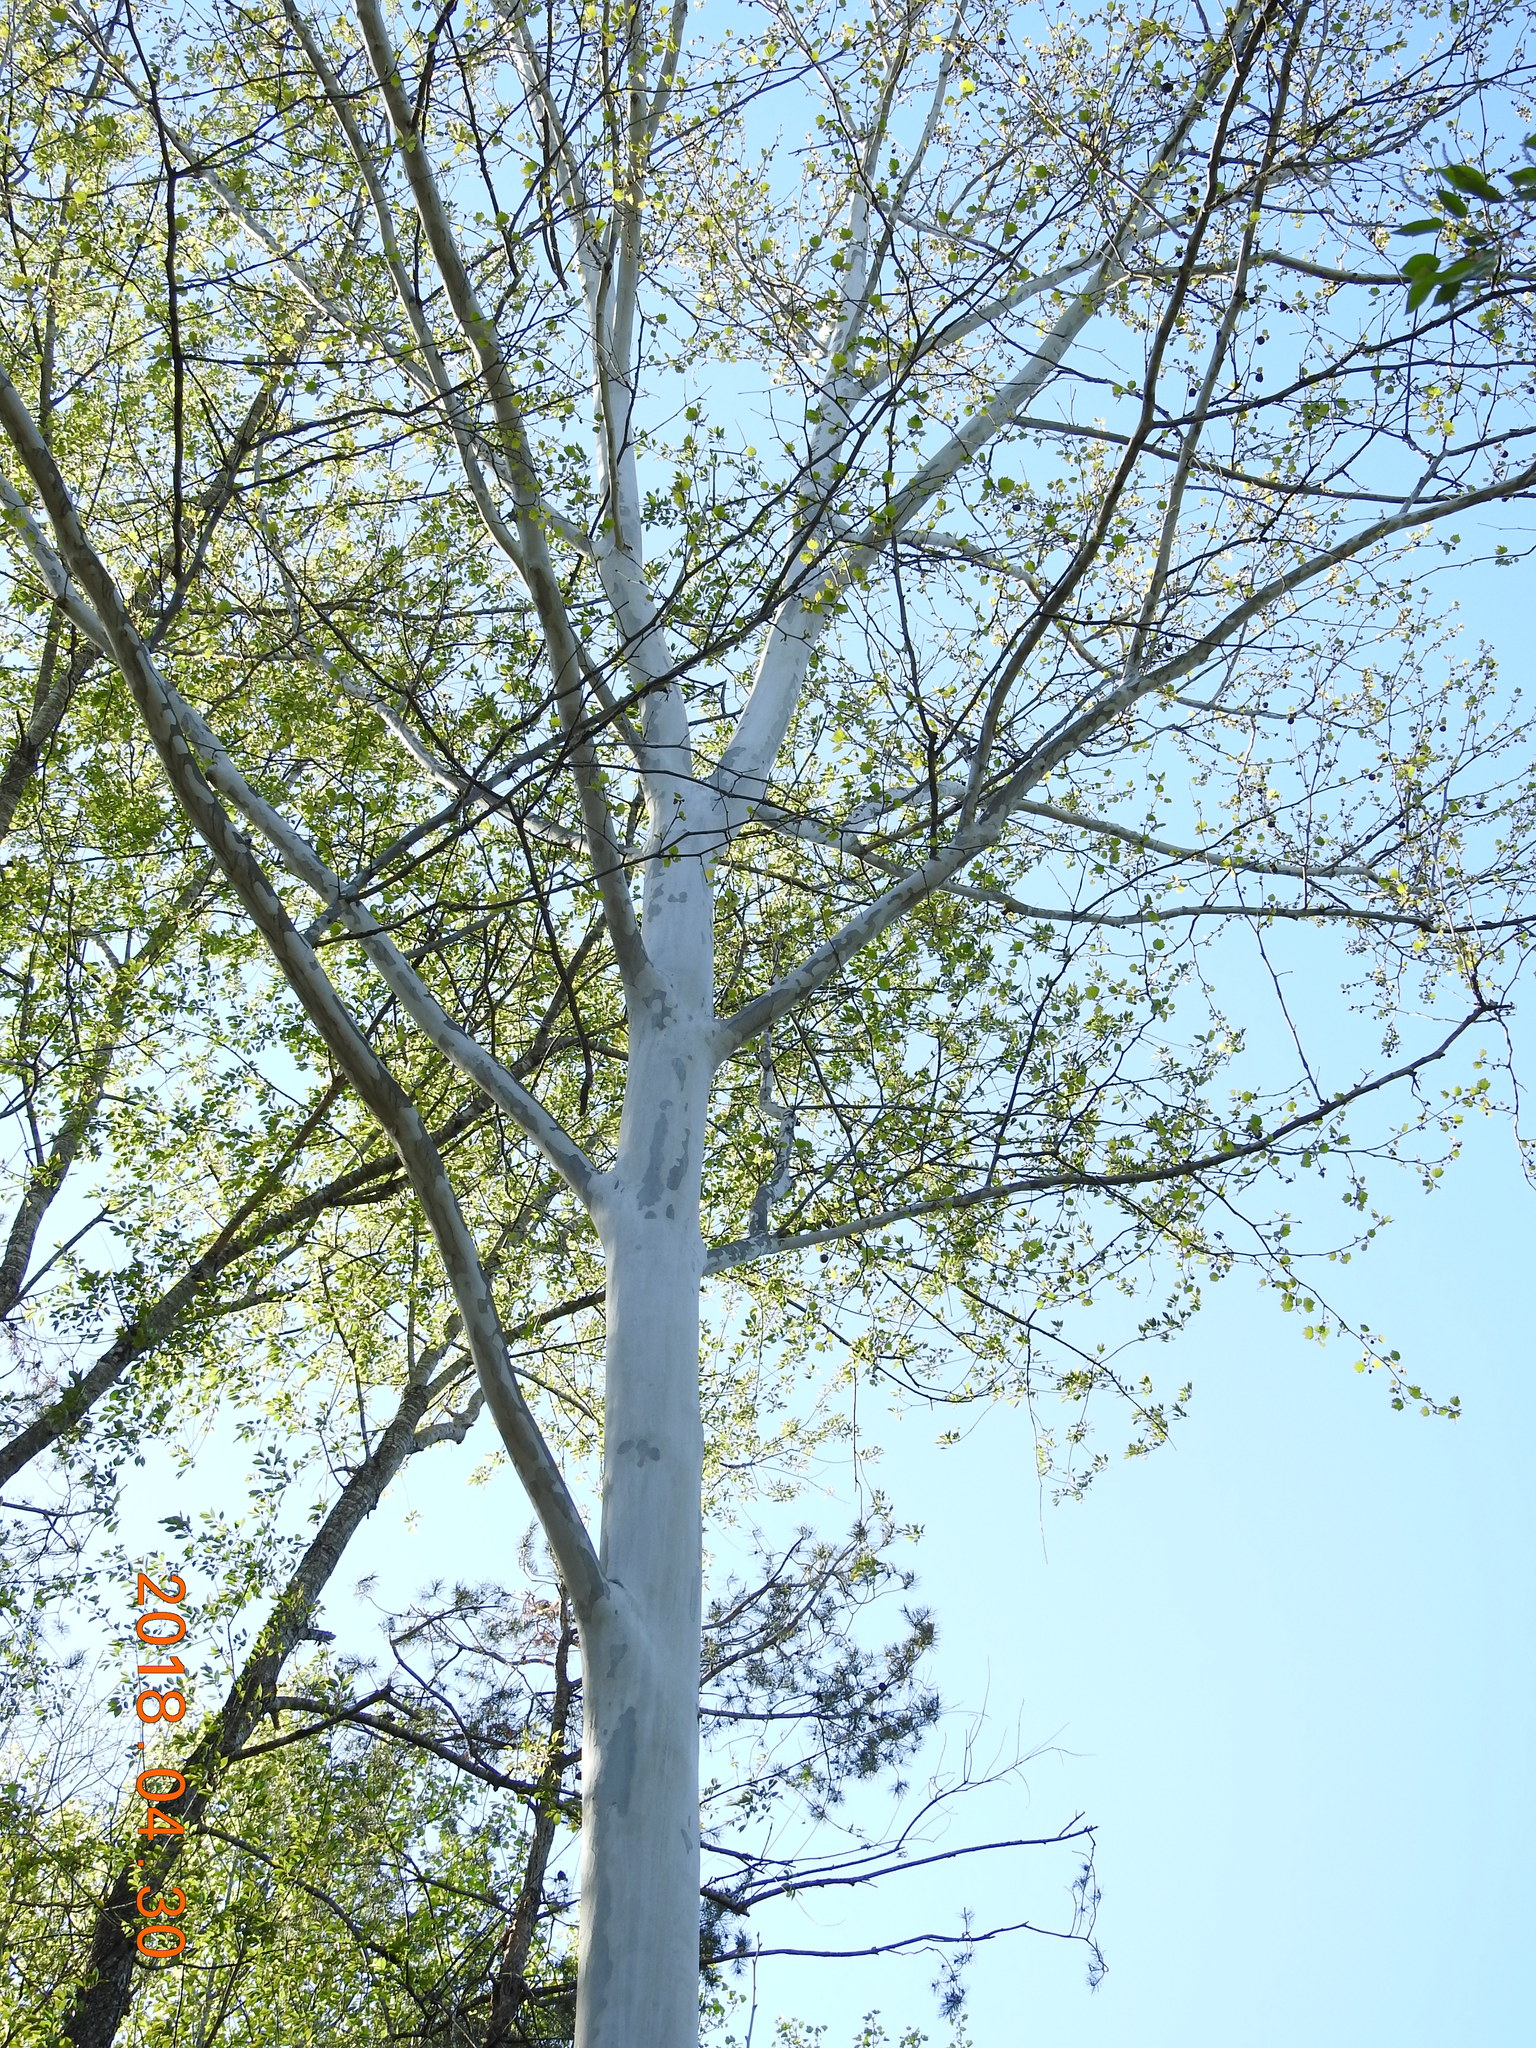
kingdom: Plantae
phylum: Tracheophyta
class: Magnoliopsida
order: Proteales
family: Platanaceae
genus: Platanus
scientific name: Platanus occidentalis
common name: American sycamore
